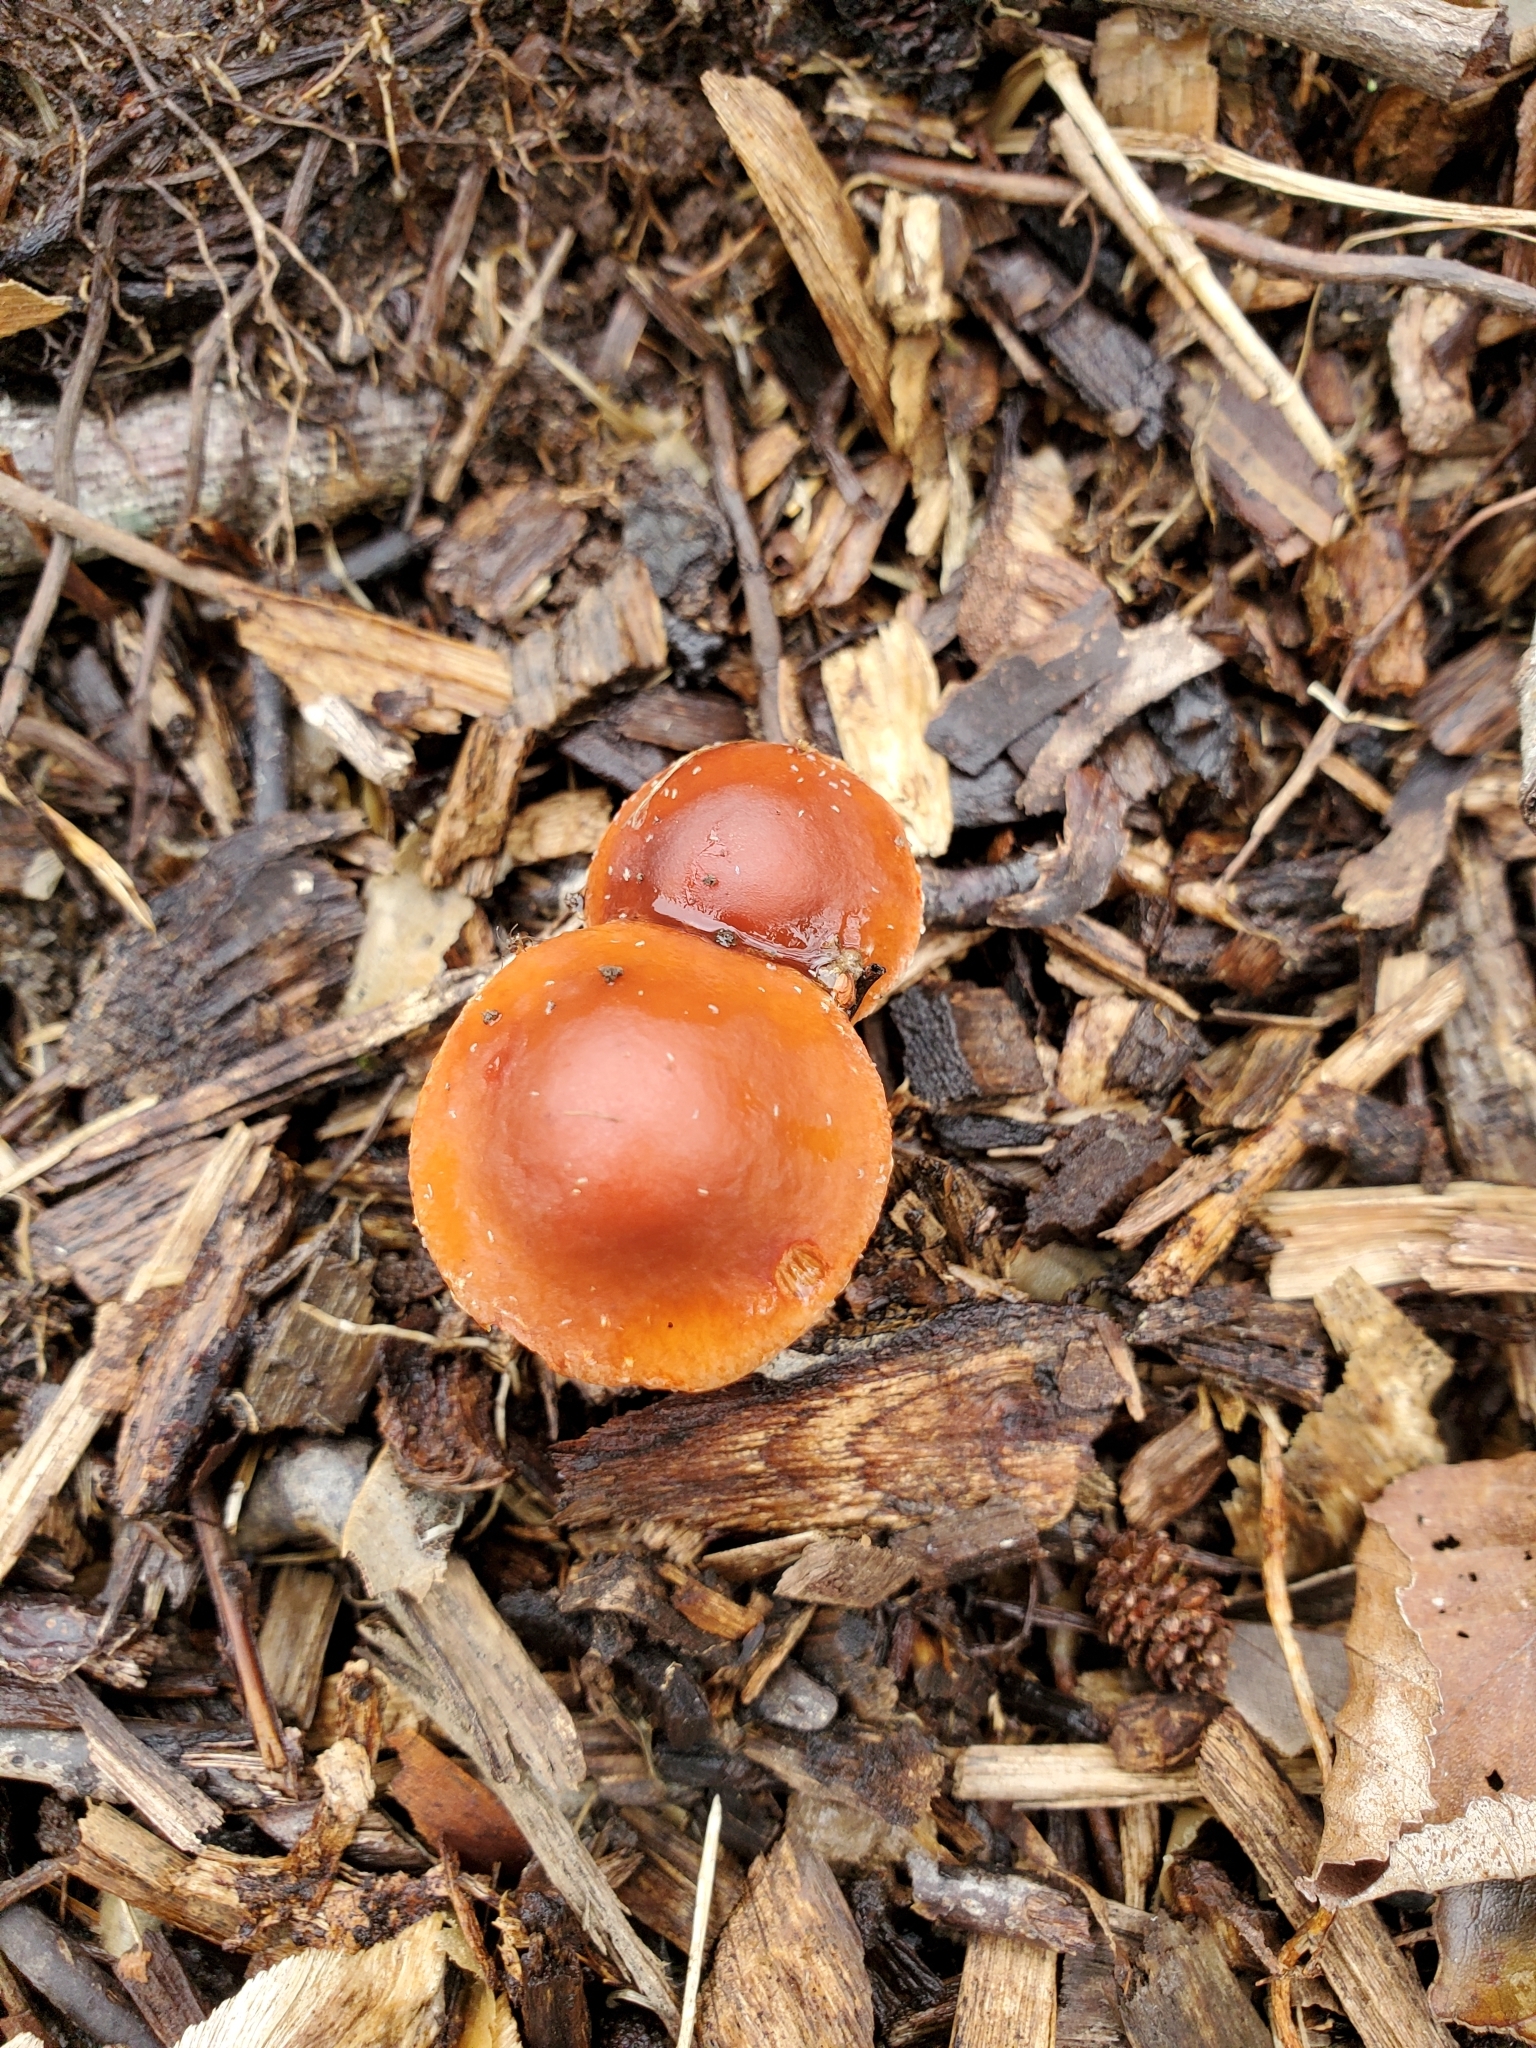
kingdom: Fungi
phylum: Basidiomycota
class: Agaricomycetes
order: Agaricales
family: Strophariaceae
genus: Leratiomyces
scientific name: Leratiomyces ceres
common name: Redlead roundhead
